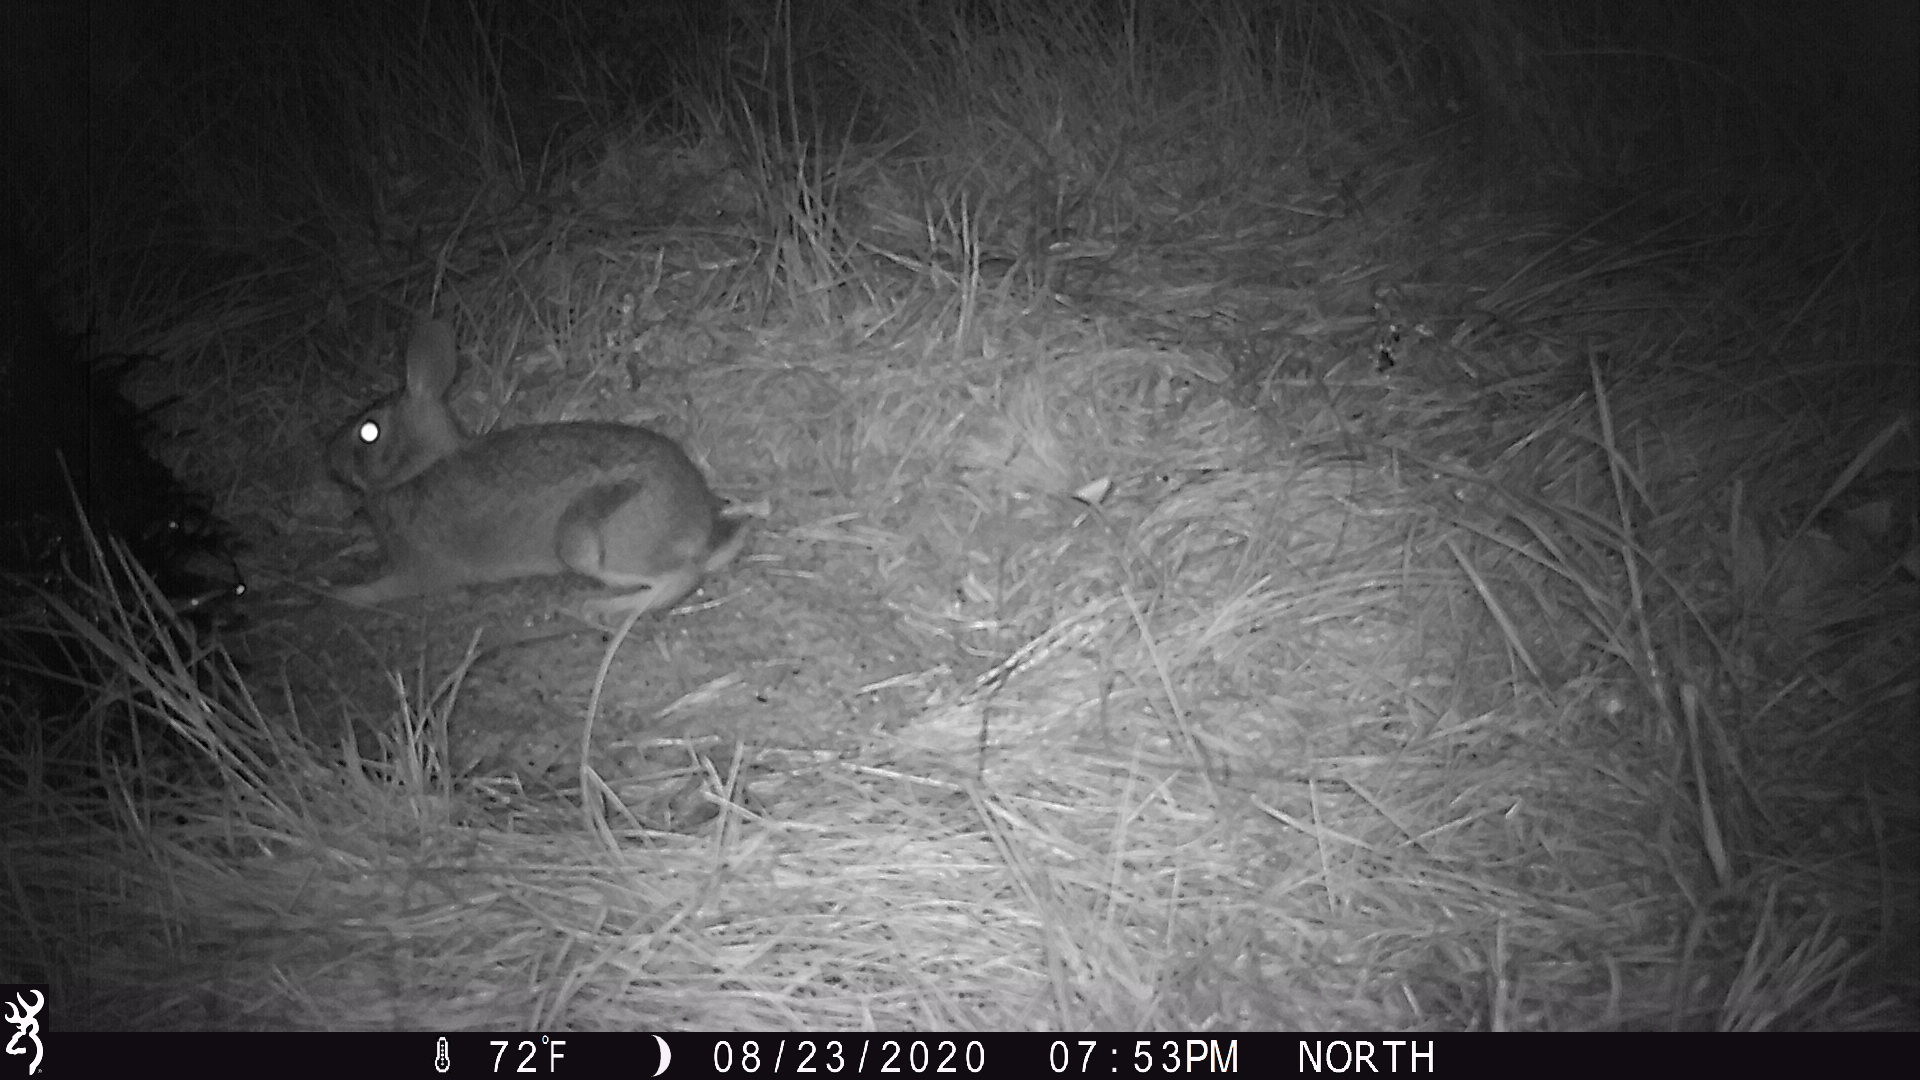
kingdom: Animalia
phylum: Chordata
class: Mammalia
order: Lagomorpha
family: Leporidae
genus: Sylvilagus
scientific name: Sylvilagus floridanus
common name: Eastern cottontail
